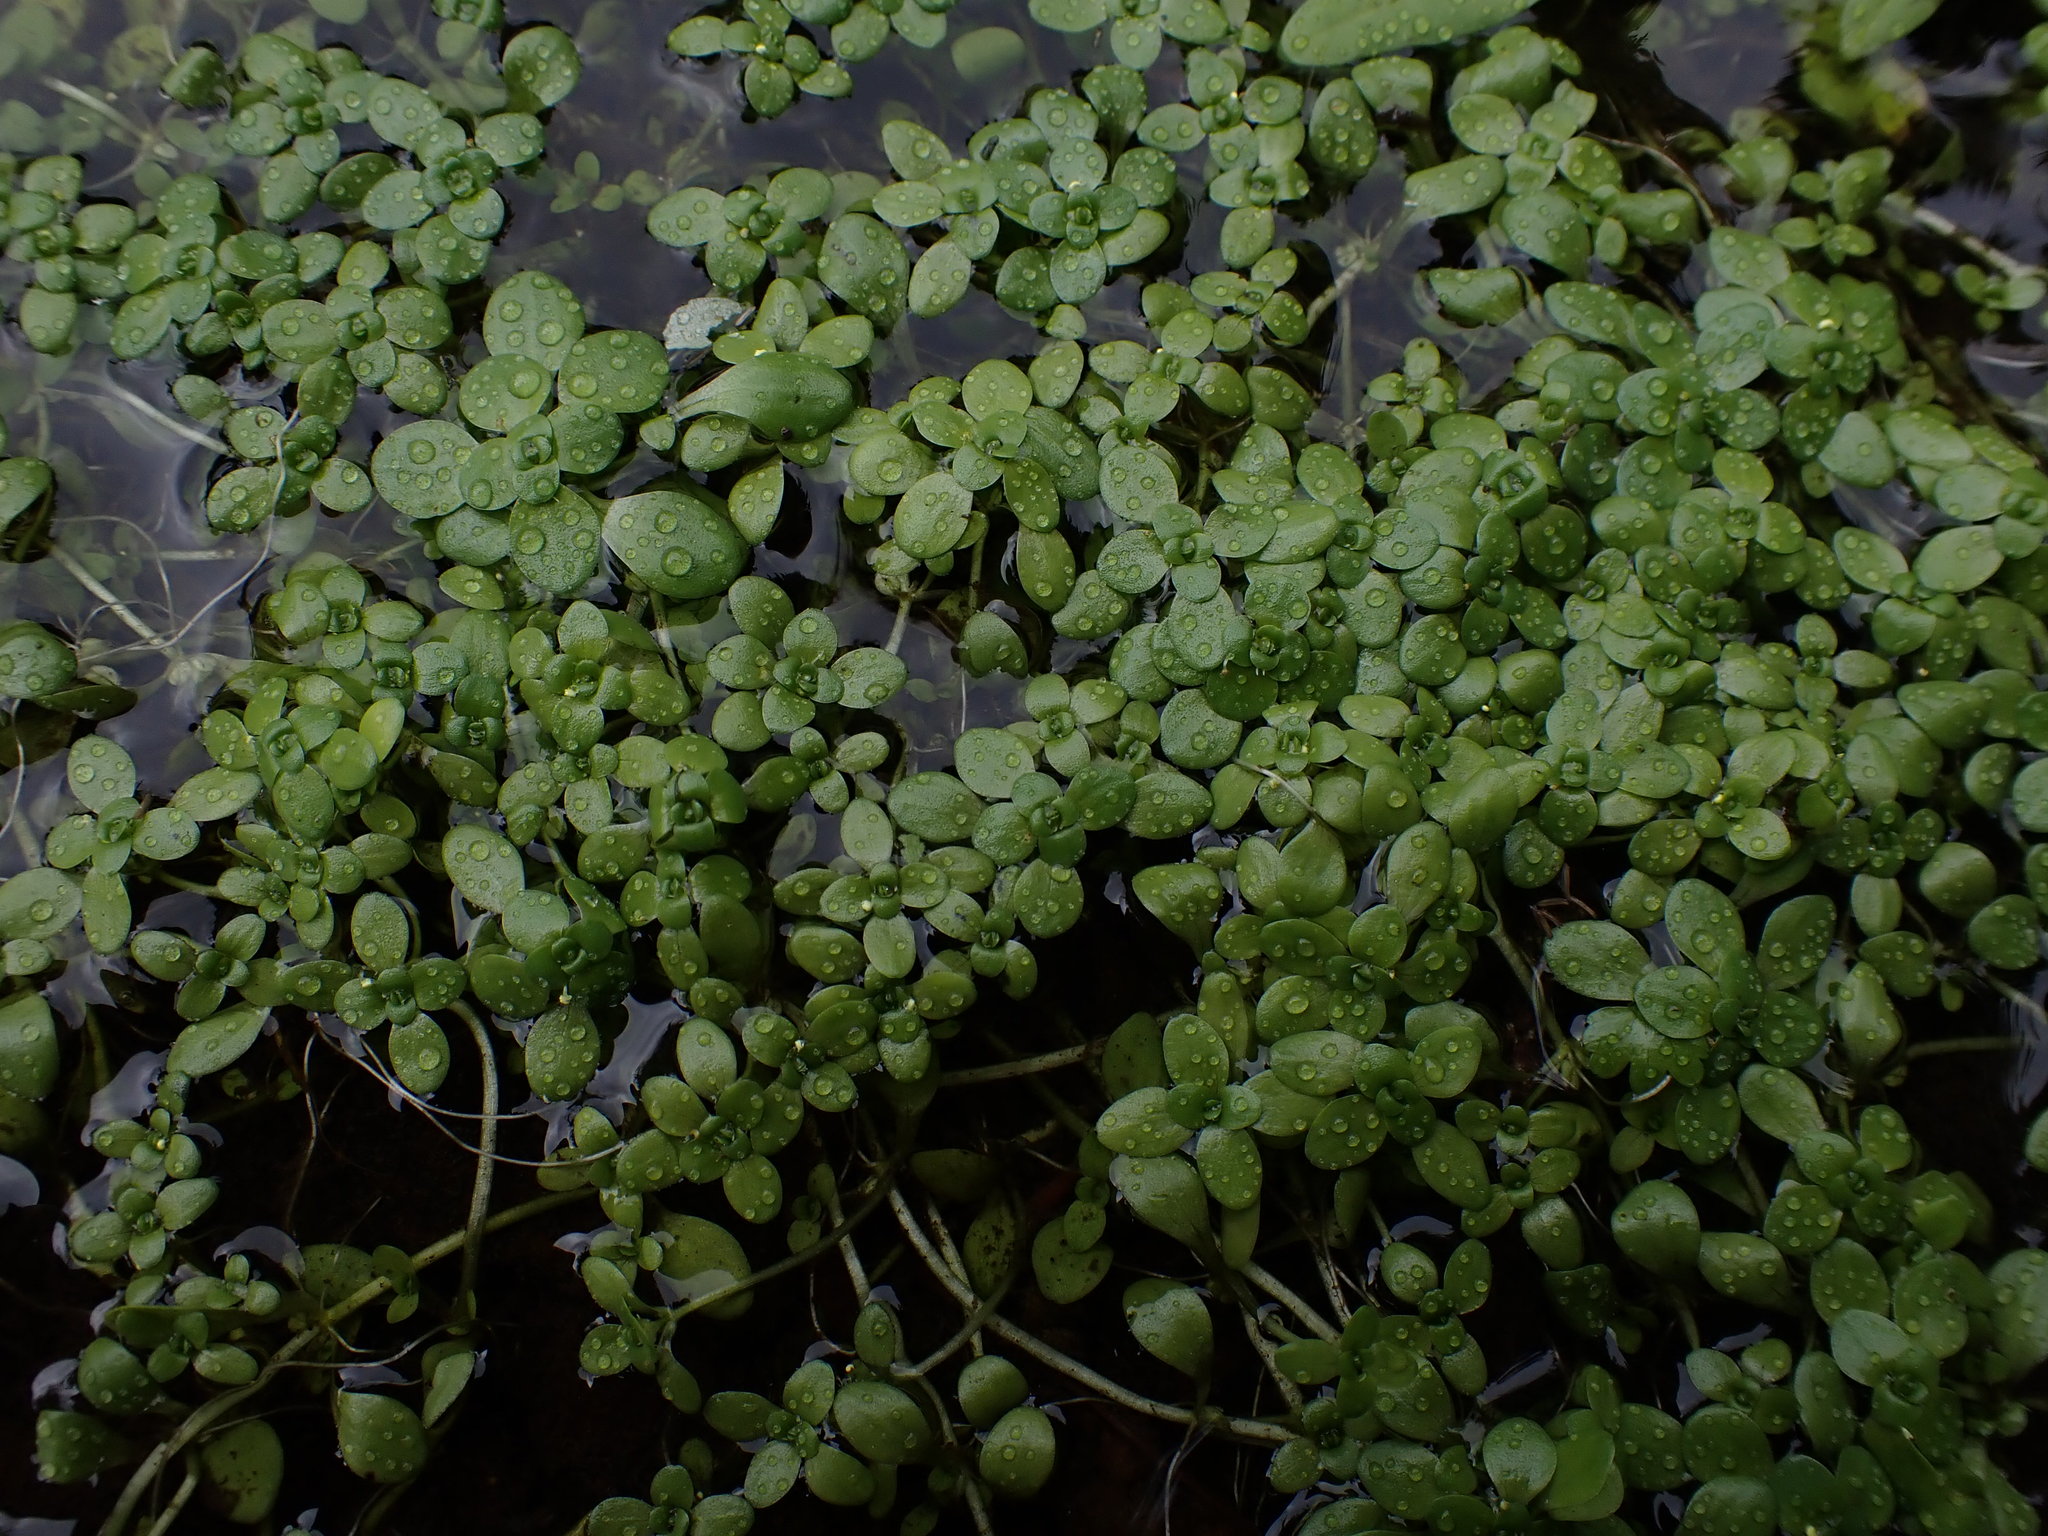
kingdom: Plantae
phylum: Tracheophyta
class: Magnoliopsida
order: Lamiales
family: Plantaginaceae
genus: Callitriche
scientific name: Callitriche stagnalis
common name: Common water-starwort
